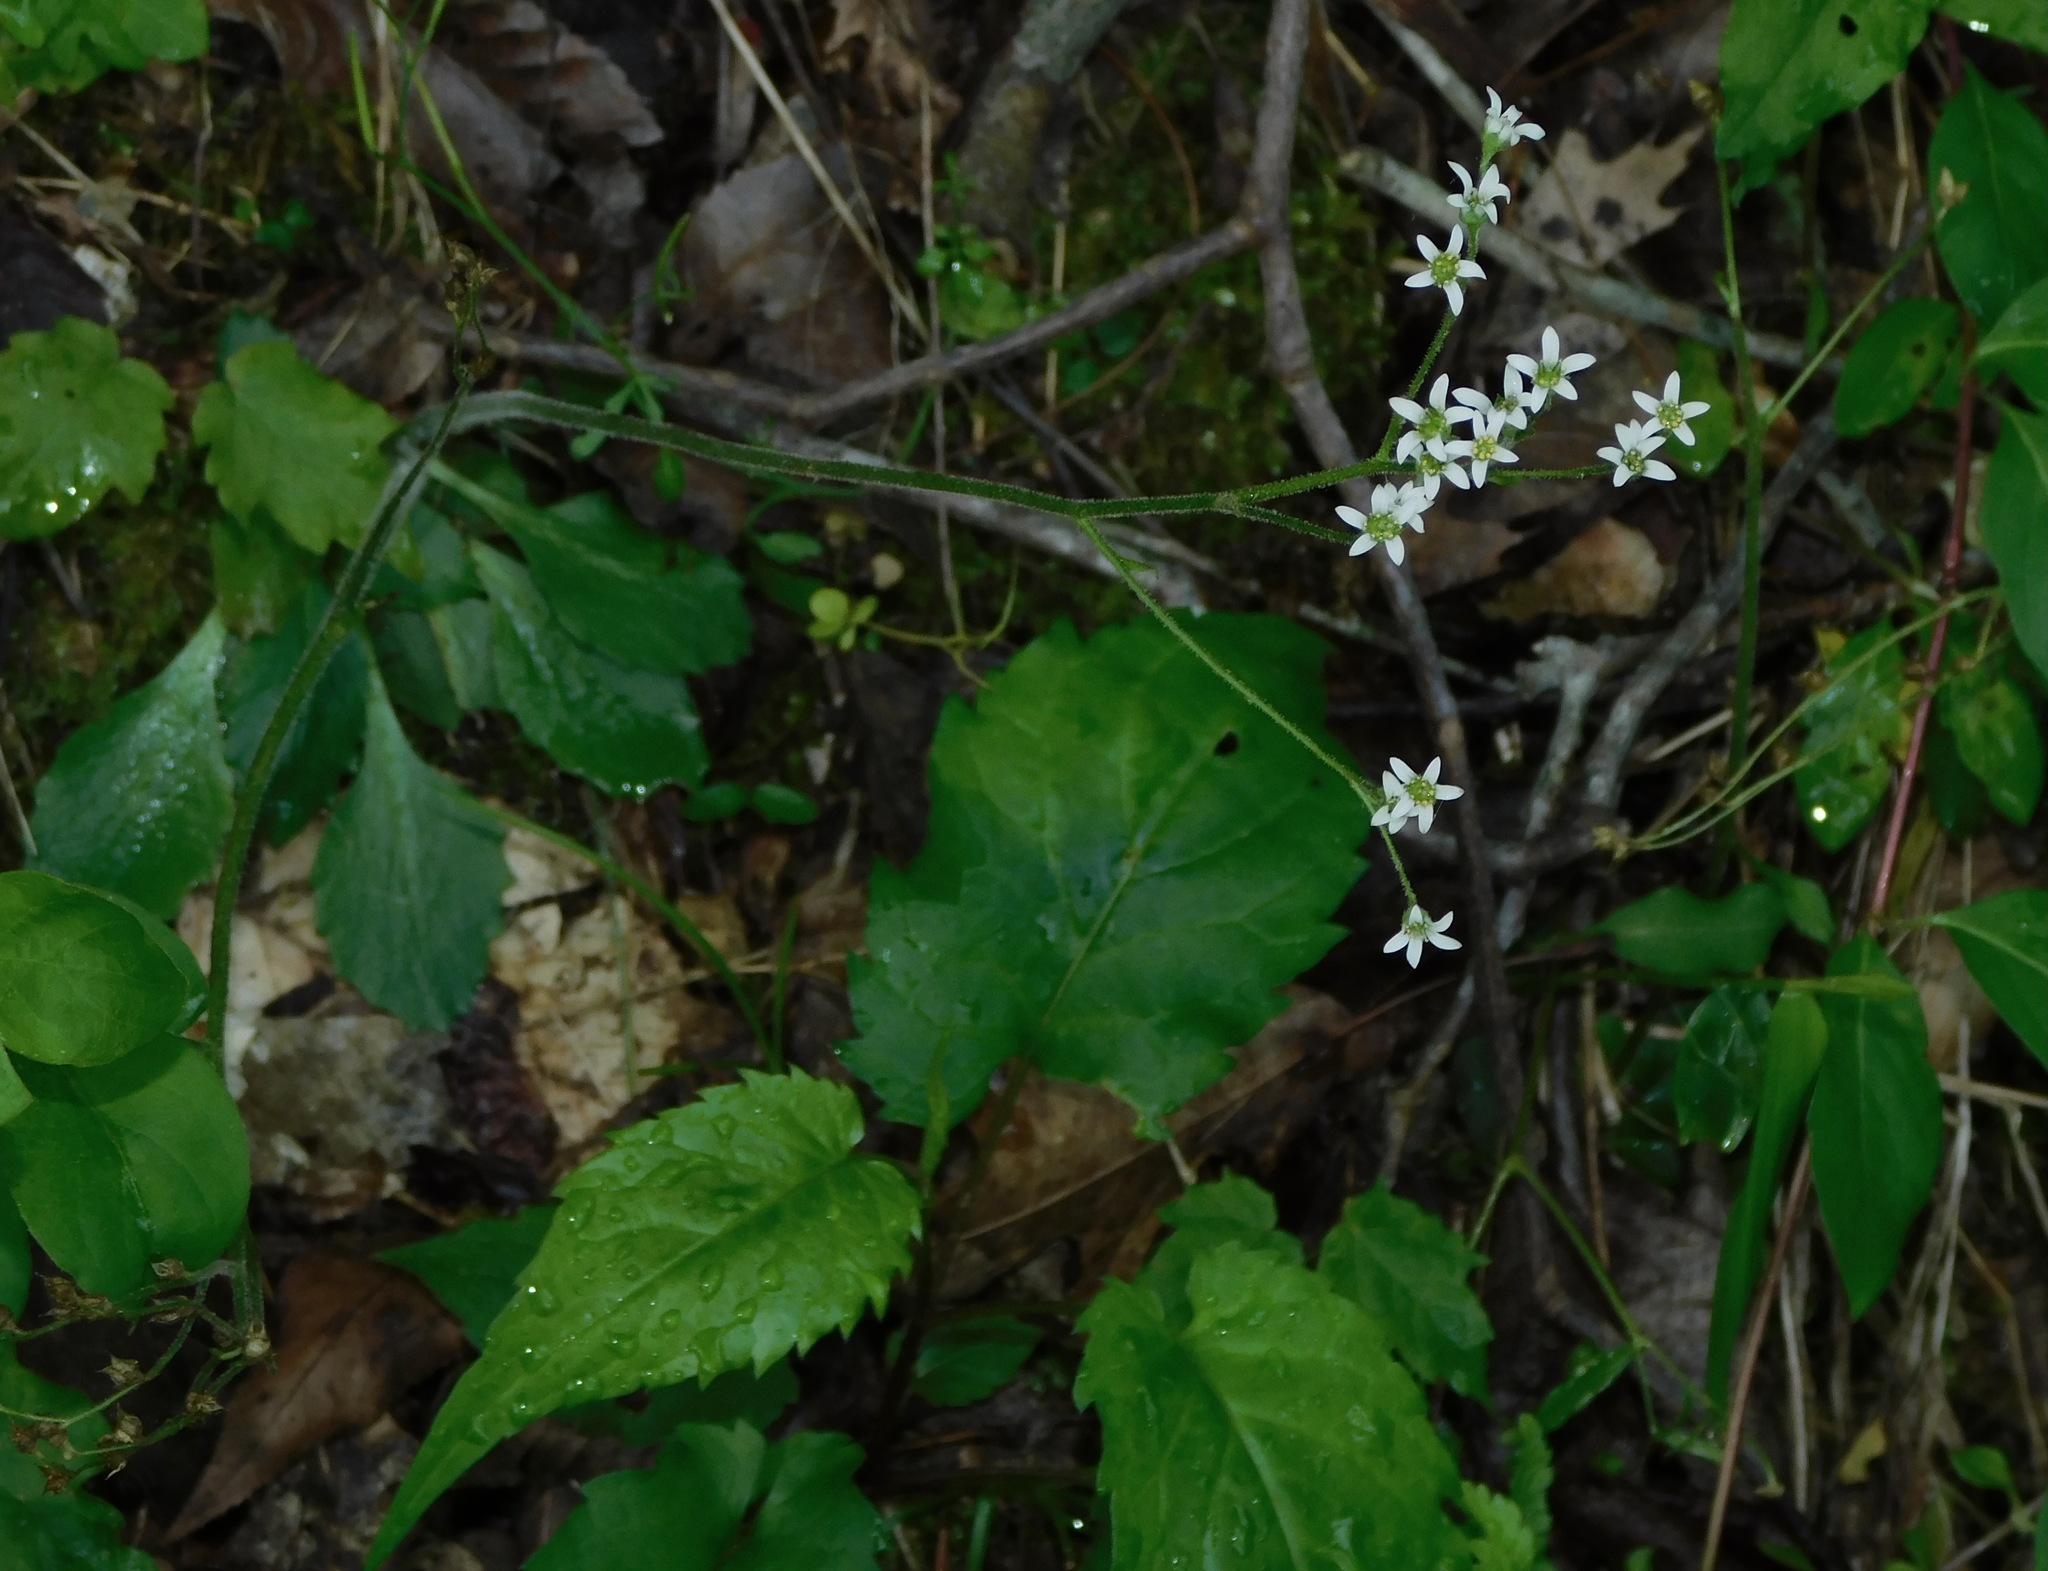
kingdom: Plantae
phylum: Tracheophyta
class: Magnoliopsida
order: Saxifragales
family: Saxifragaceae
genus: Micranthes
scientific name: Micranthes virginiensis
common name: Early saxifrage
